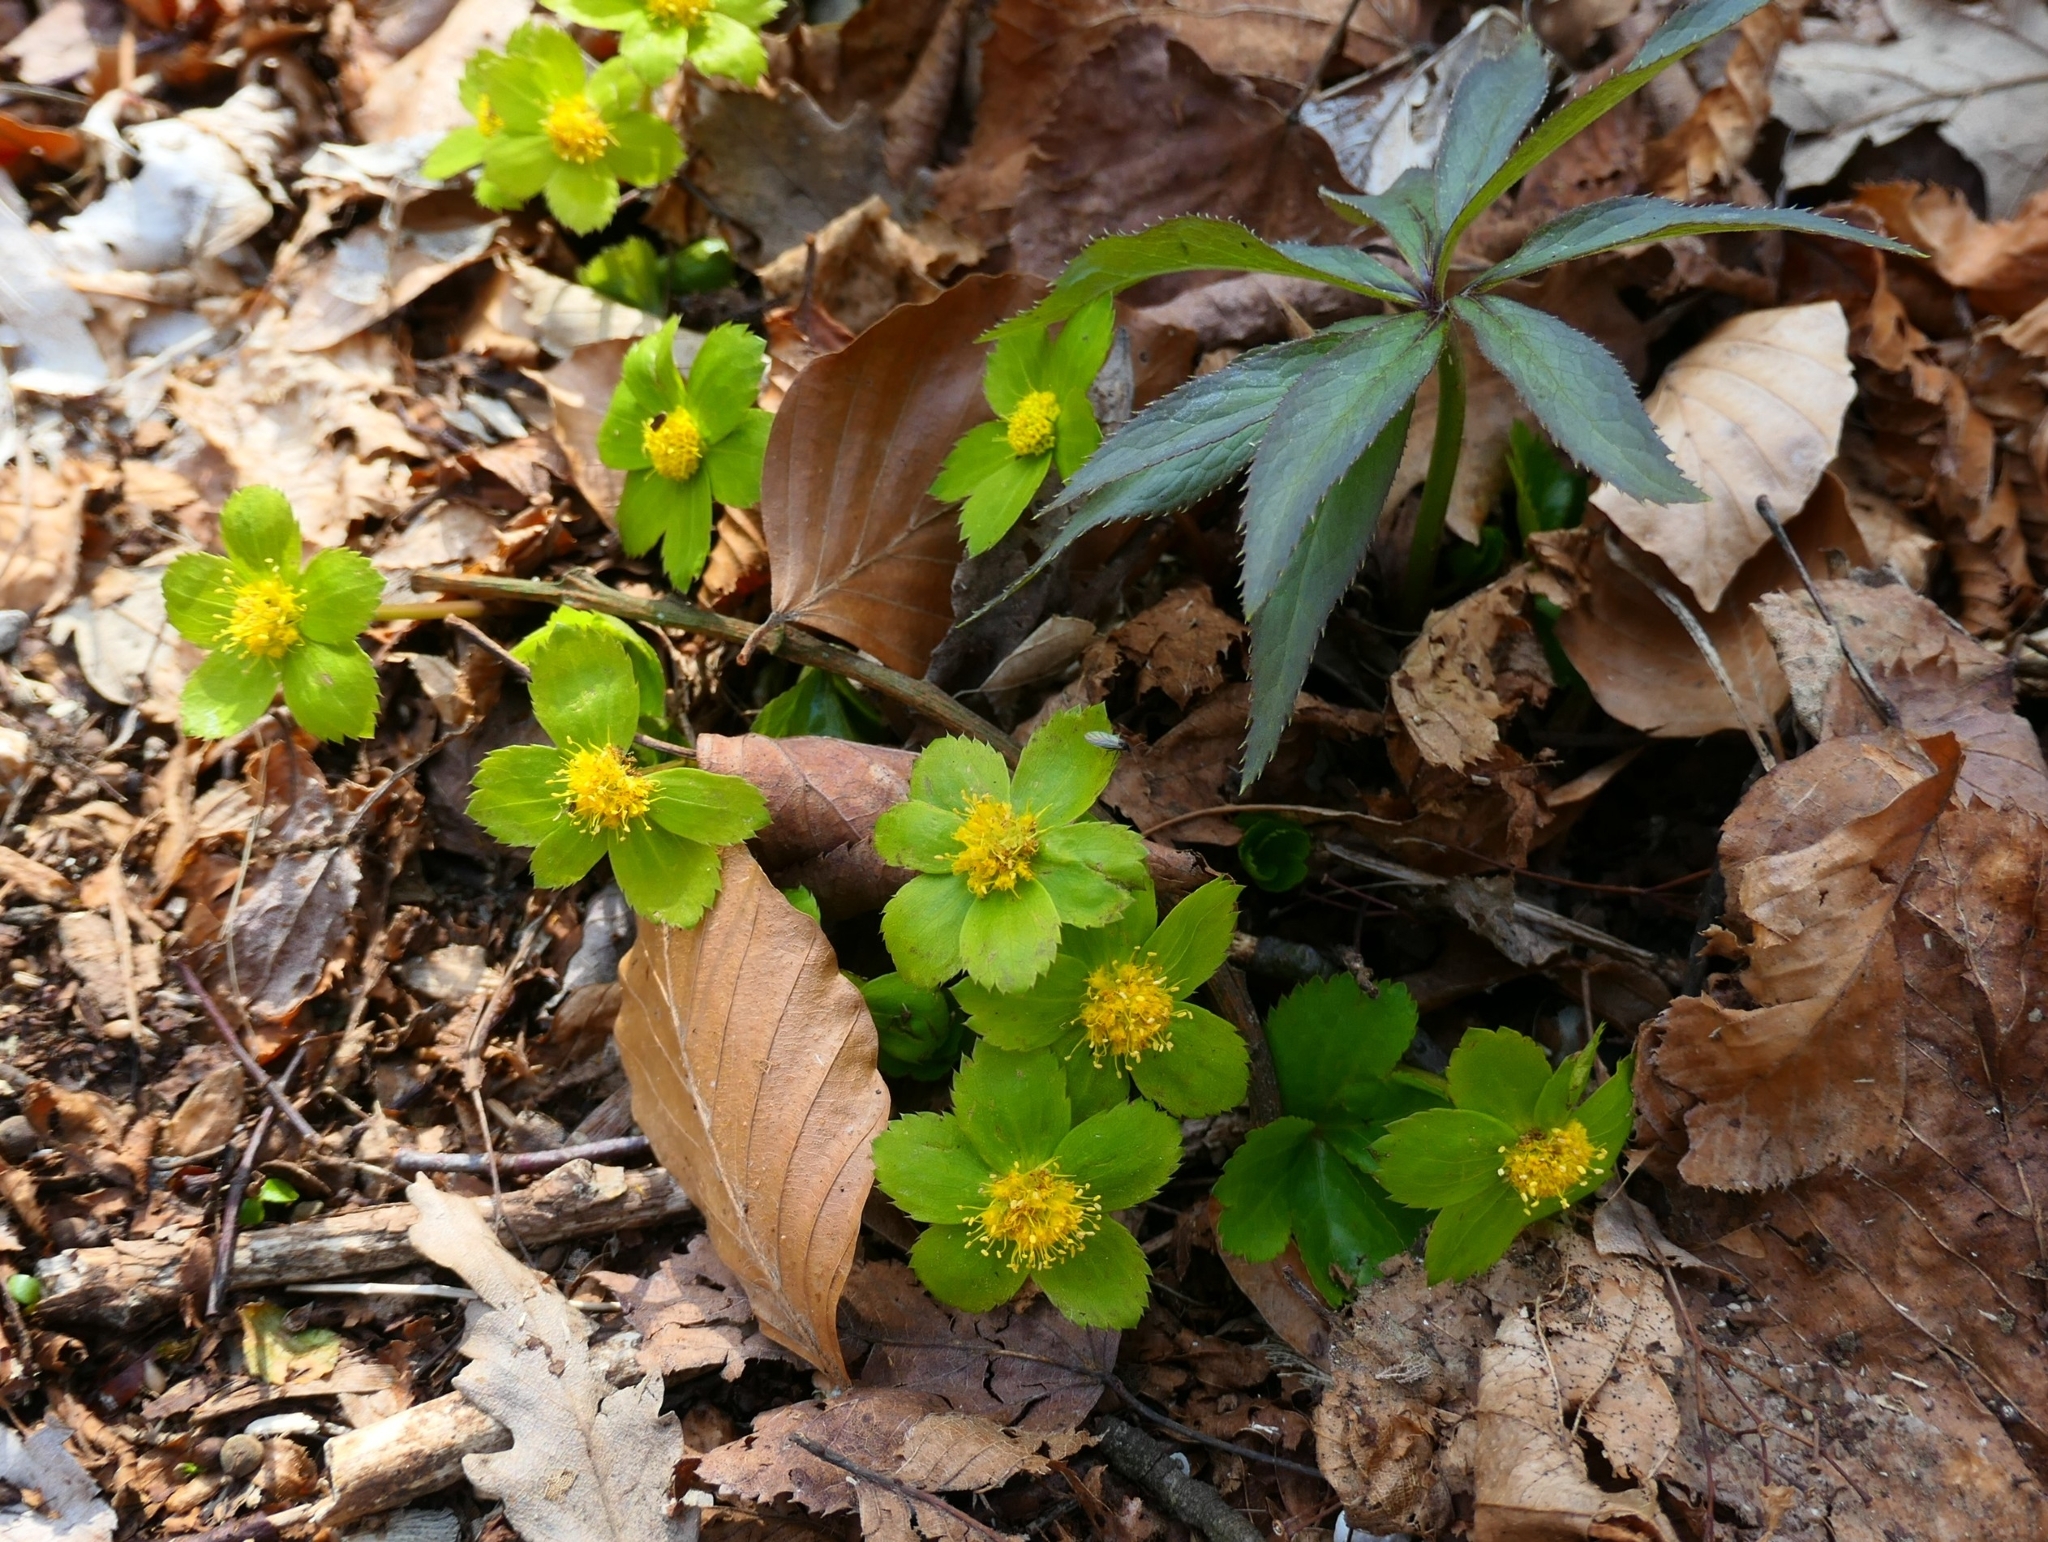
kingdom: Plantae
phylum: Tracheophyta
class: Magnoliopsida
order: Apiales
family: Apiaceae
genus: Sanicula
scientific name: Sanicula epipactis
